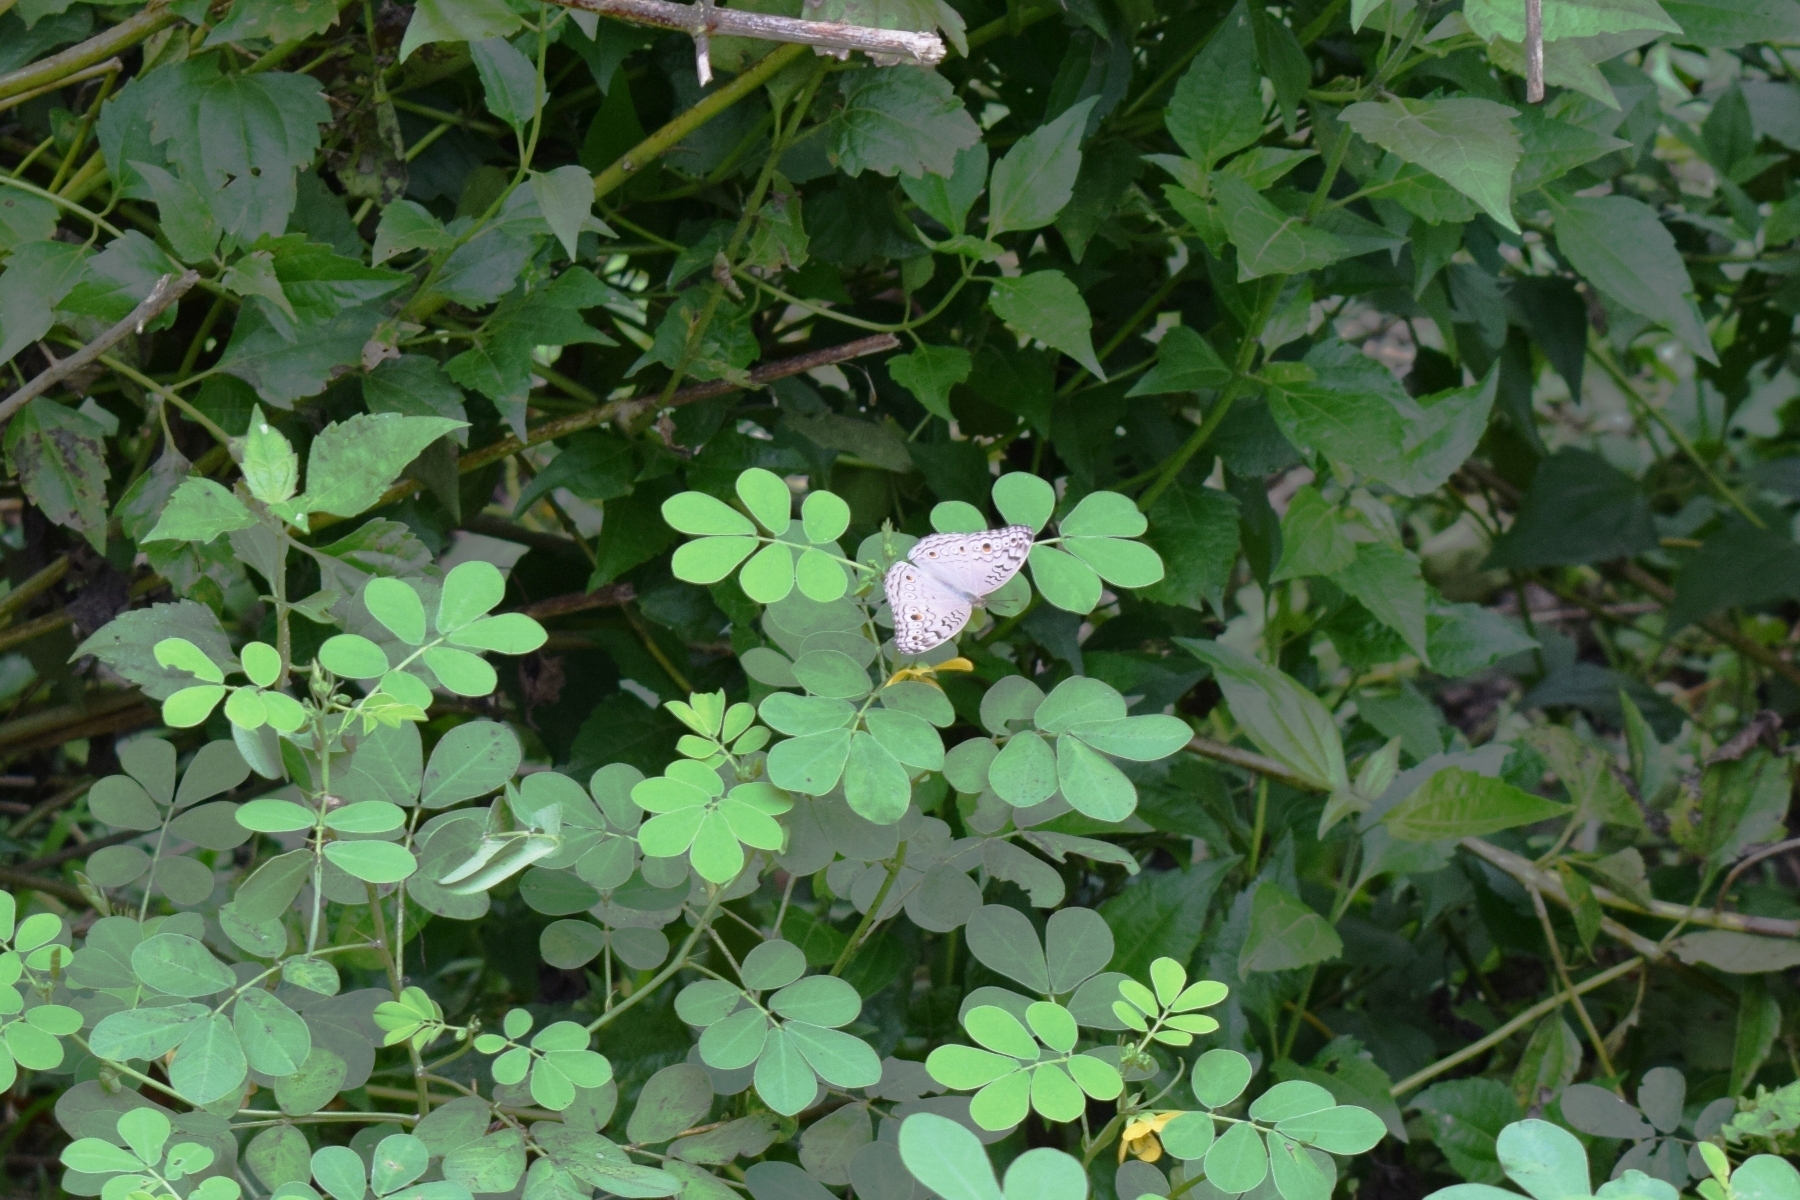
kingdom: Animalia
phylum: Arthropoda
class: Insecta
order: Lepidoptera
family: Nymphalidae
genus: Junonia
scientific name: Junonia atlites
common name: Grey pansy
